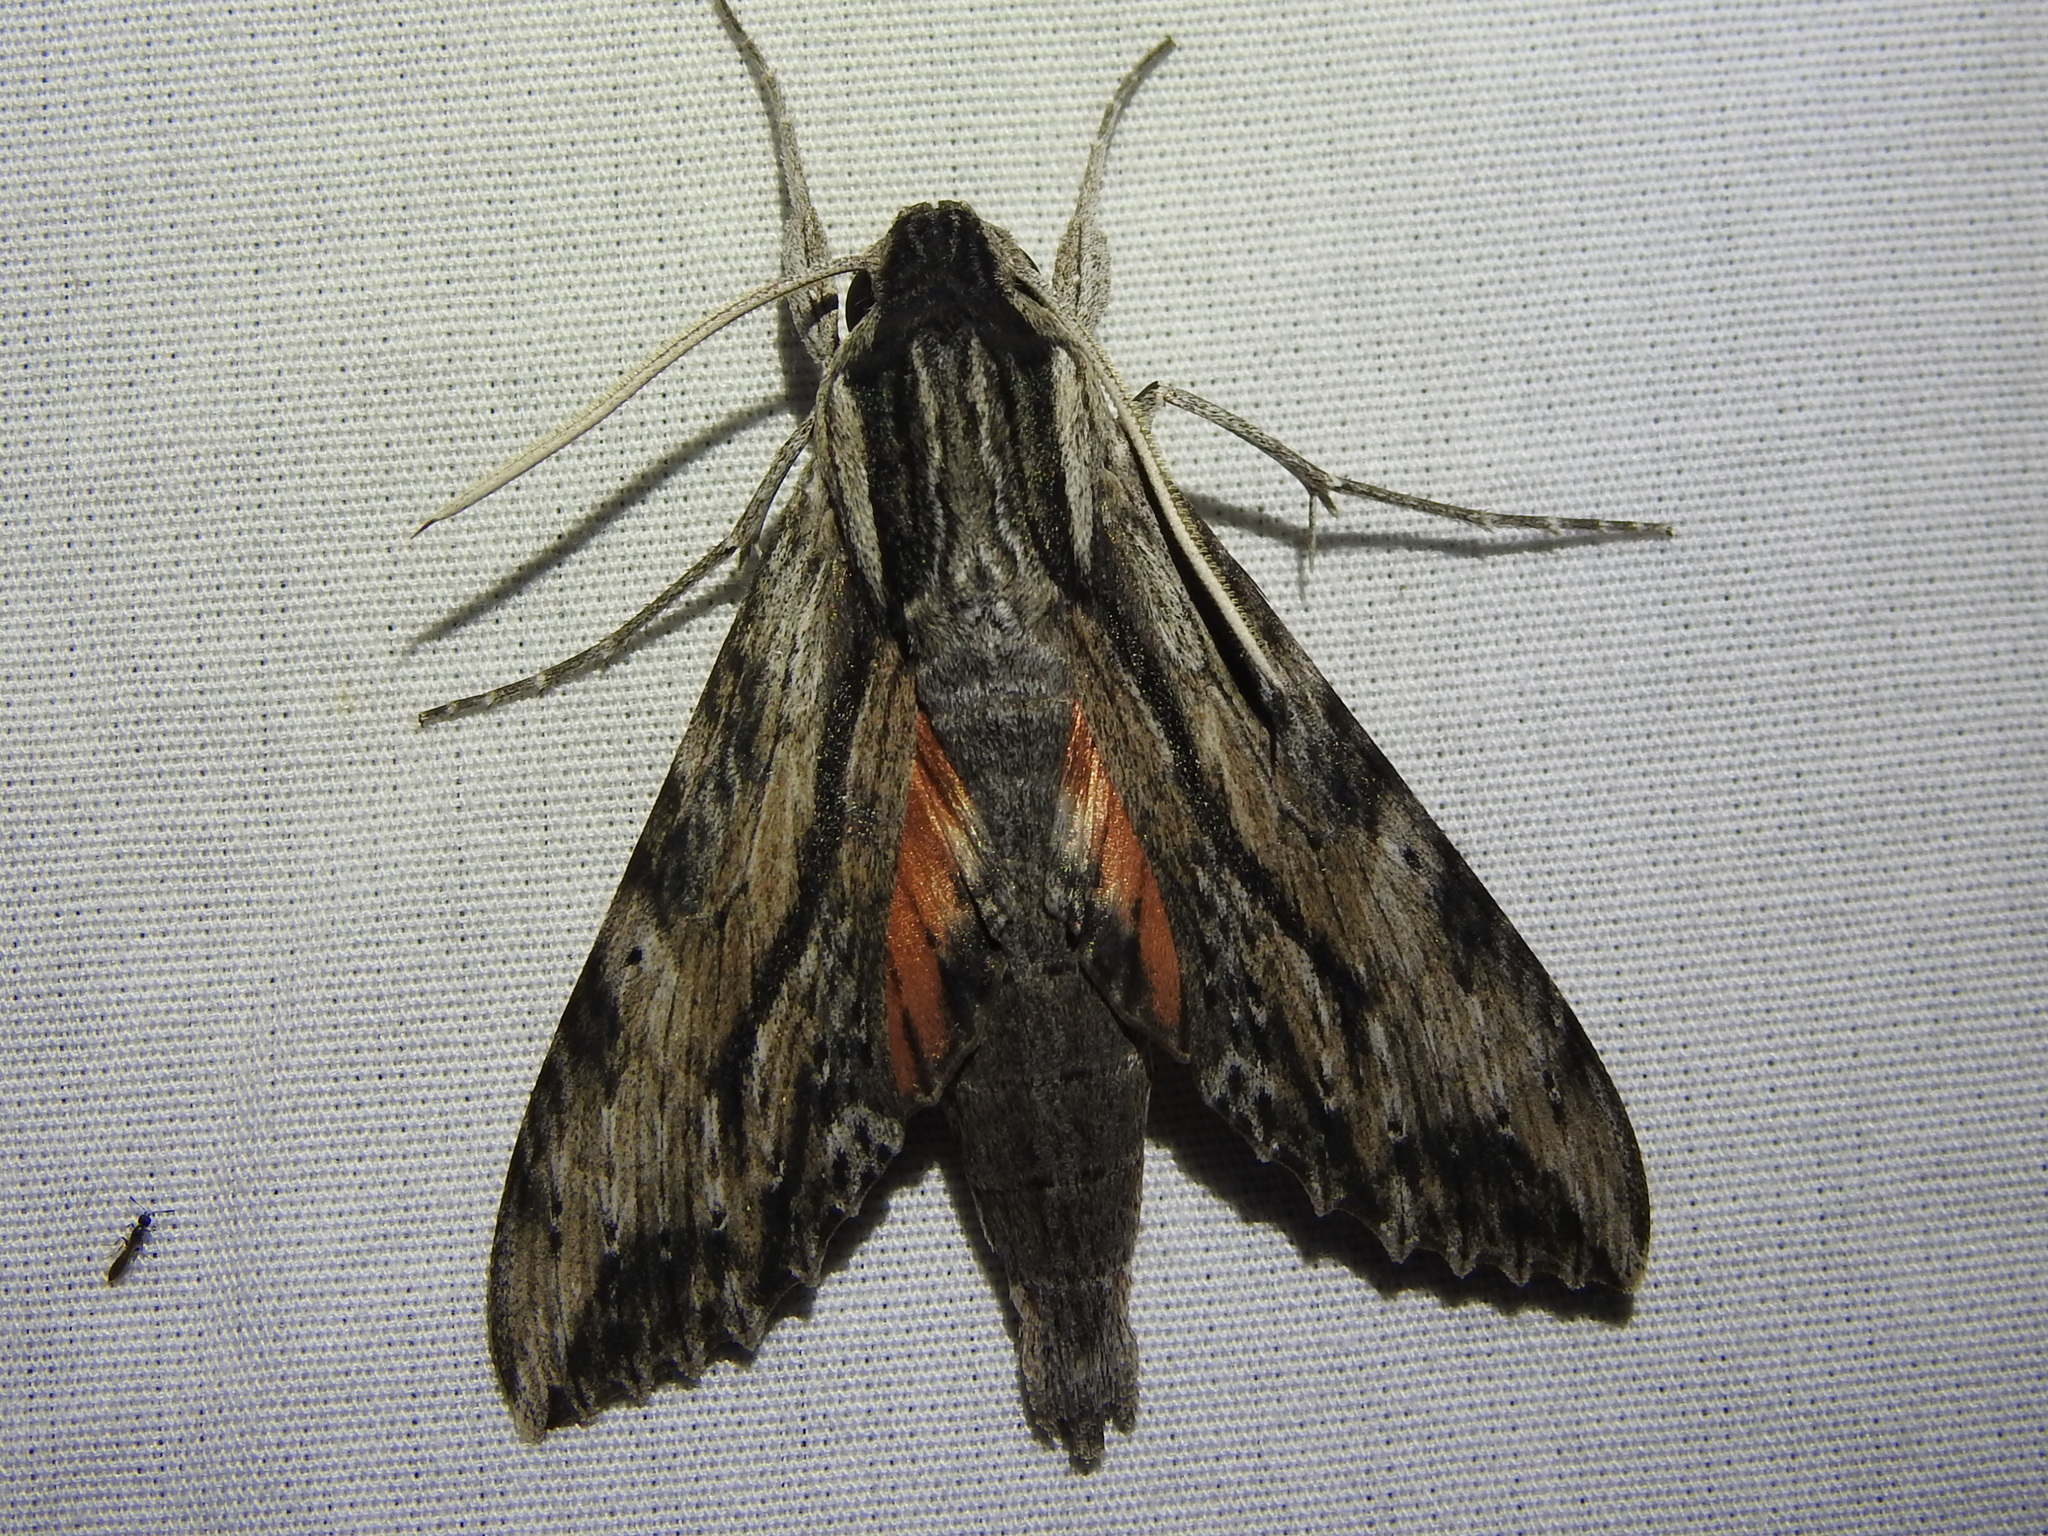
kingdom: Animalia
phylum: Arthropoda
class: Insecta
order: Lepidoptera
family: Sphingidae
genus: Erinnyis
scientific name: Erinnyis obscura
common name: Obscure sphinx
